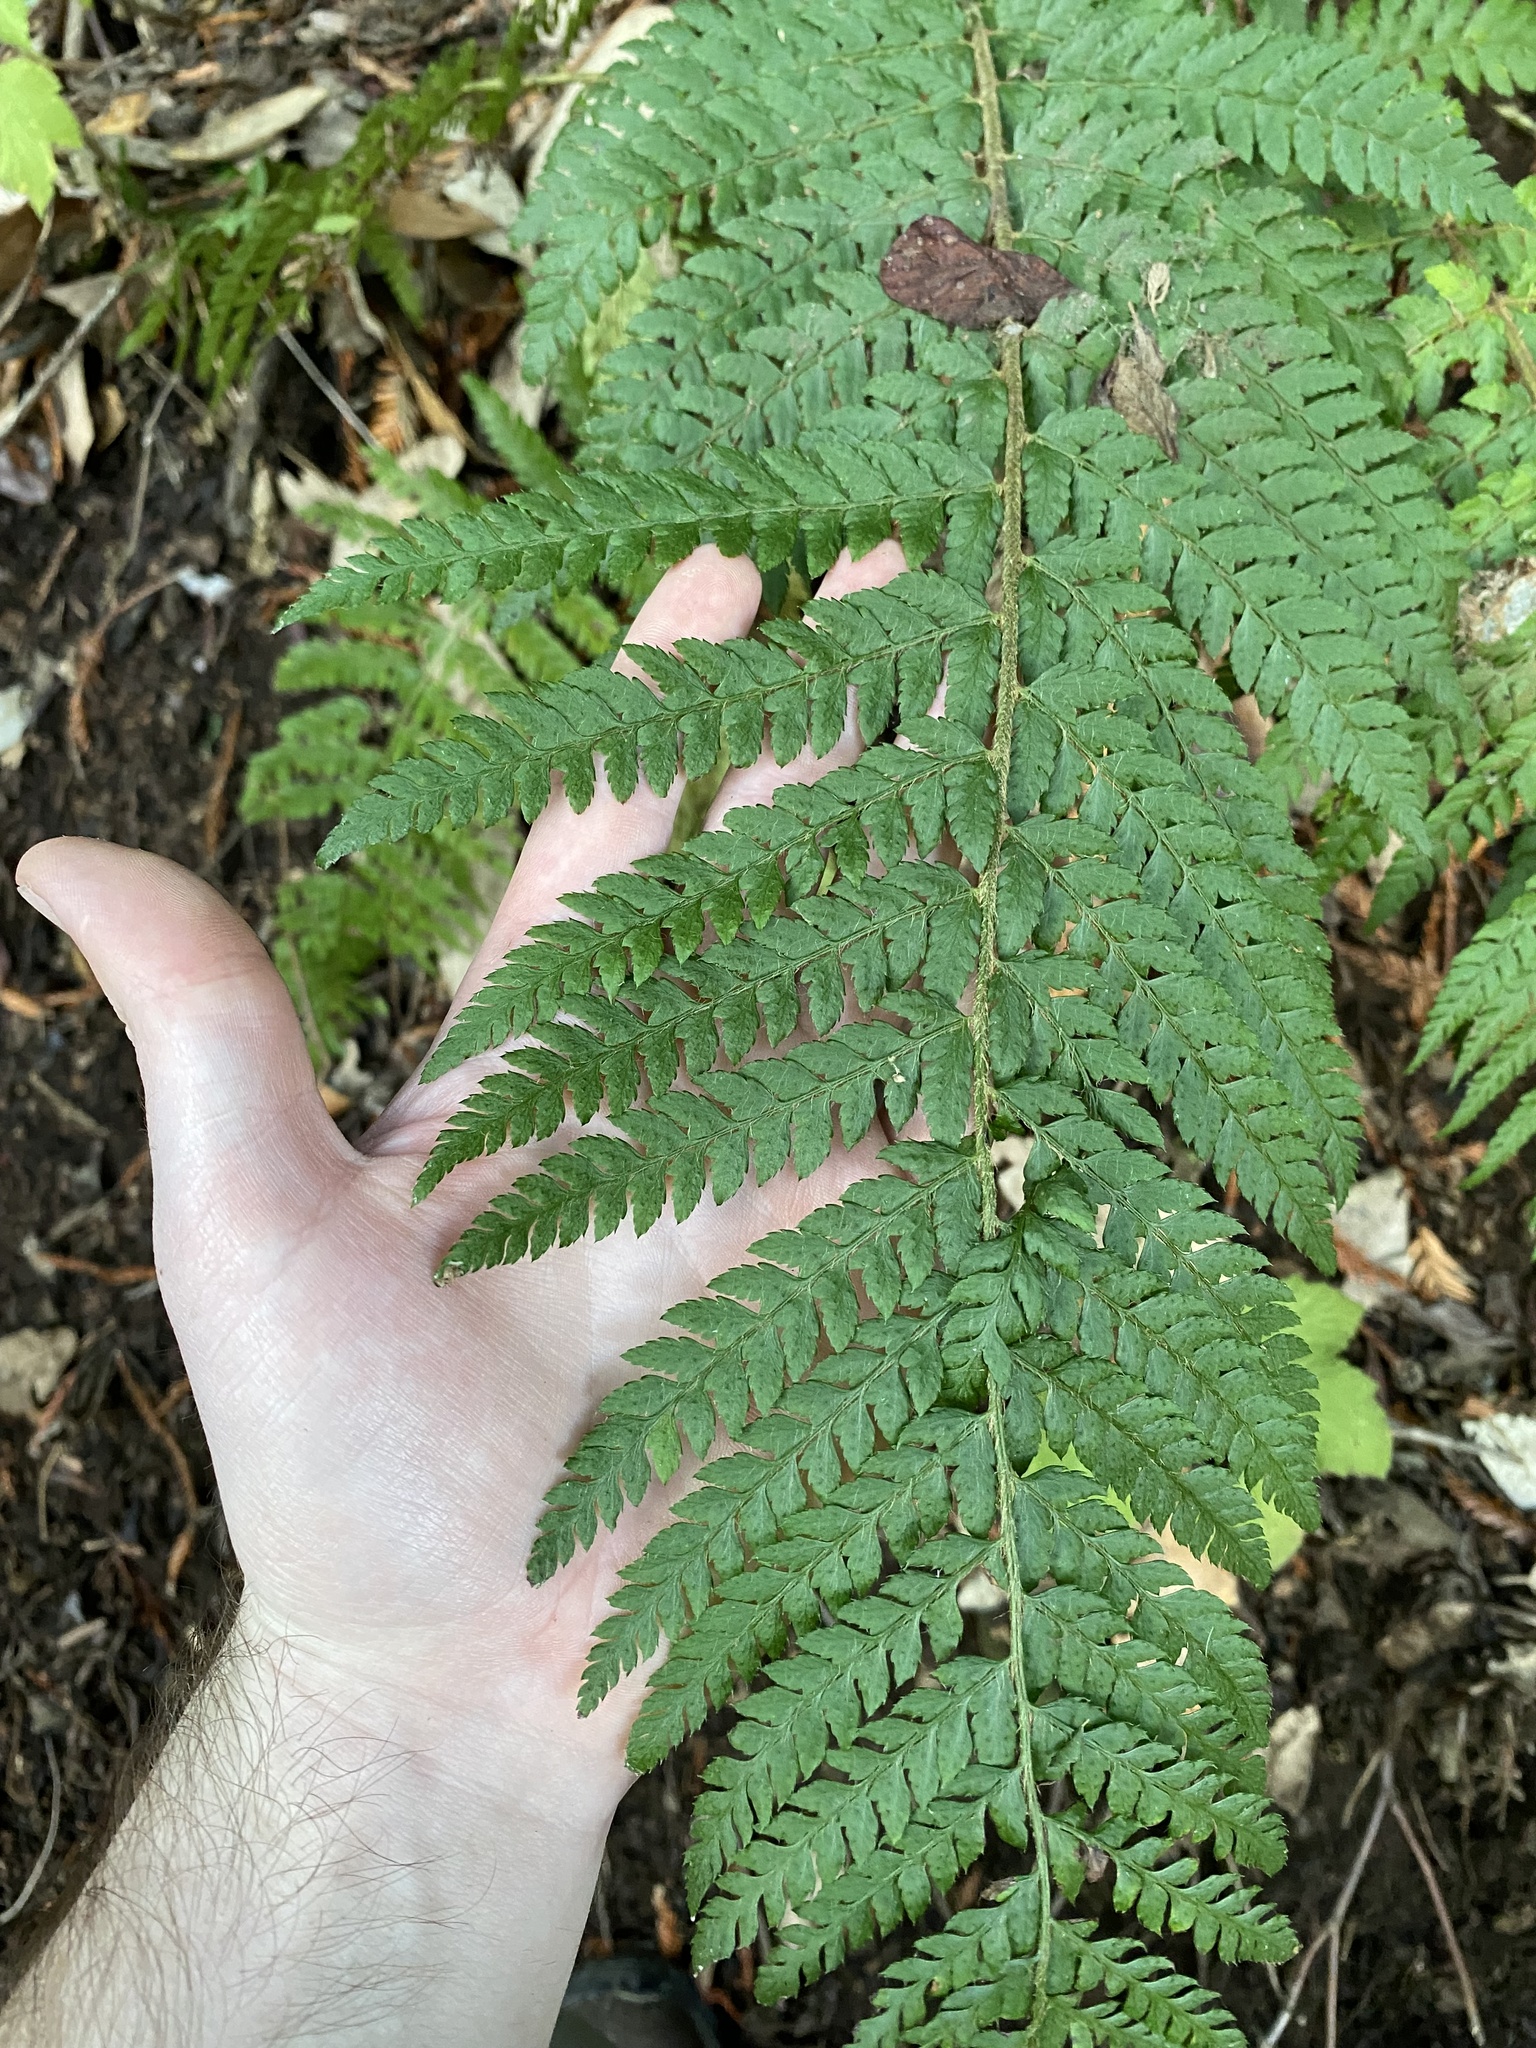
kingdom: Plantae
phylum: Tracheophyta
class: Polypodiopsida
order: Polypodiales
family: Dryopteridaceae
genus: Polystichum
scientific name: Polystichum dudleyi
